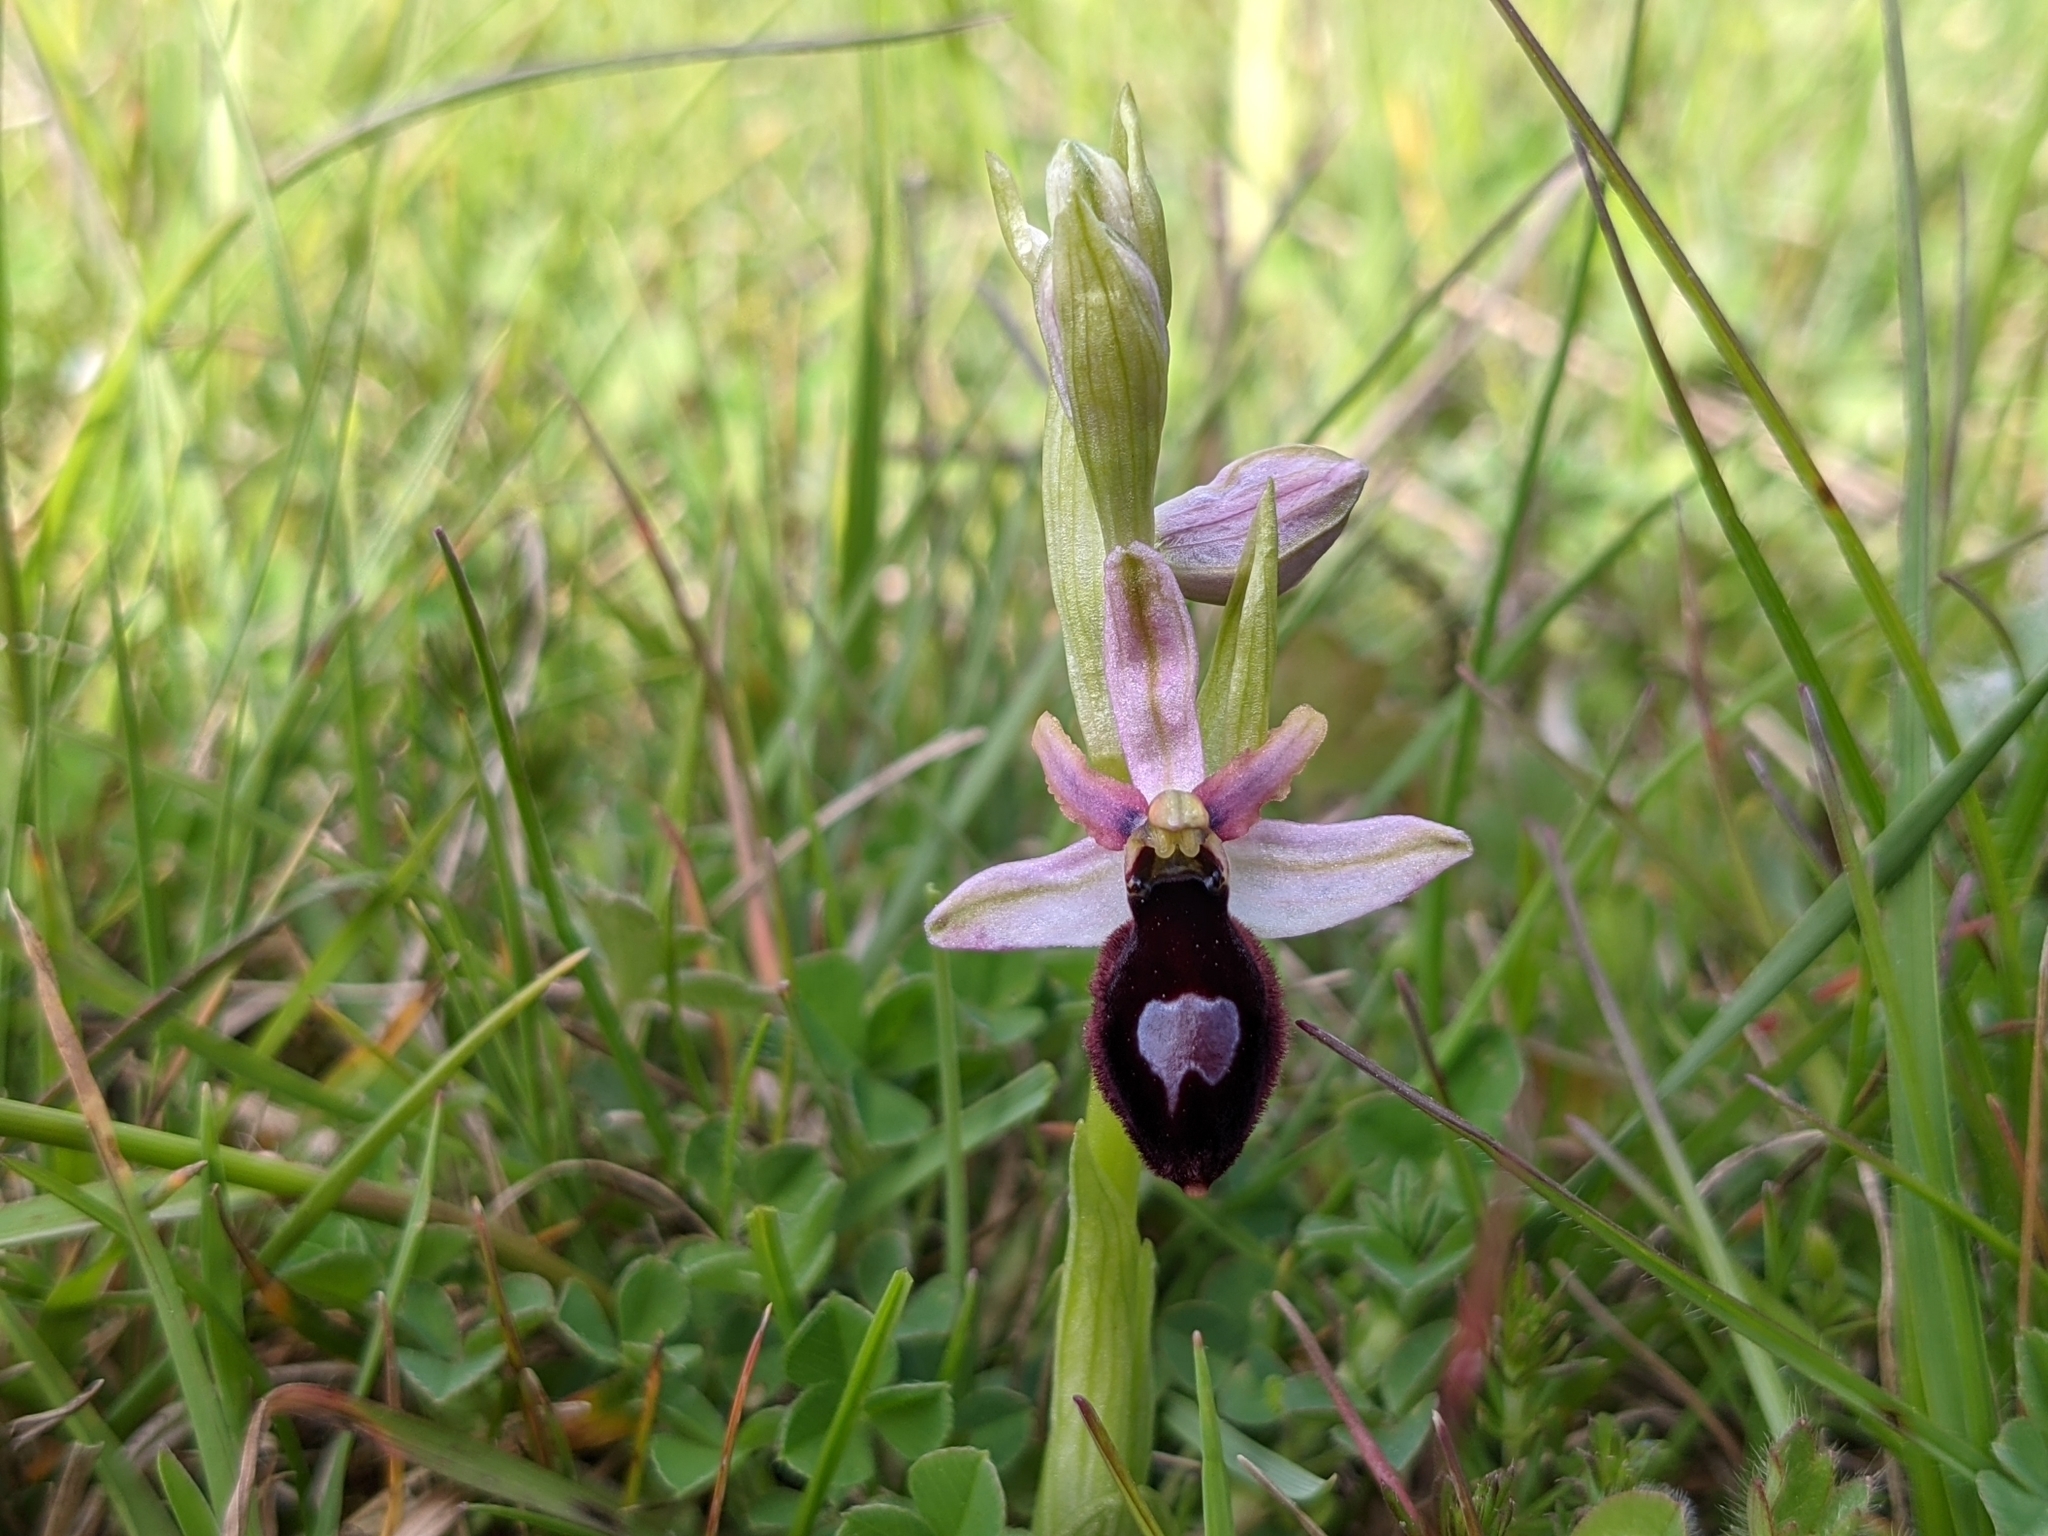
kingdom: Plantae
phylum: Tracheophyta
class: Liliopsida
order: Asparagales
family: Orchidaceae
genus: Ophrys
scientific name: Ophrys flavicans
